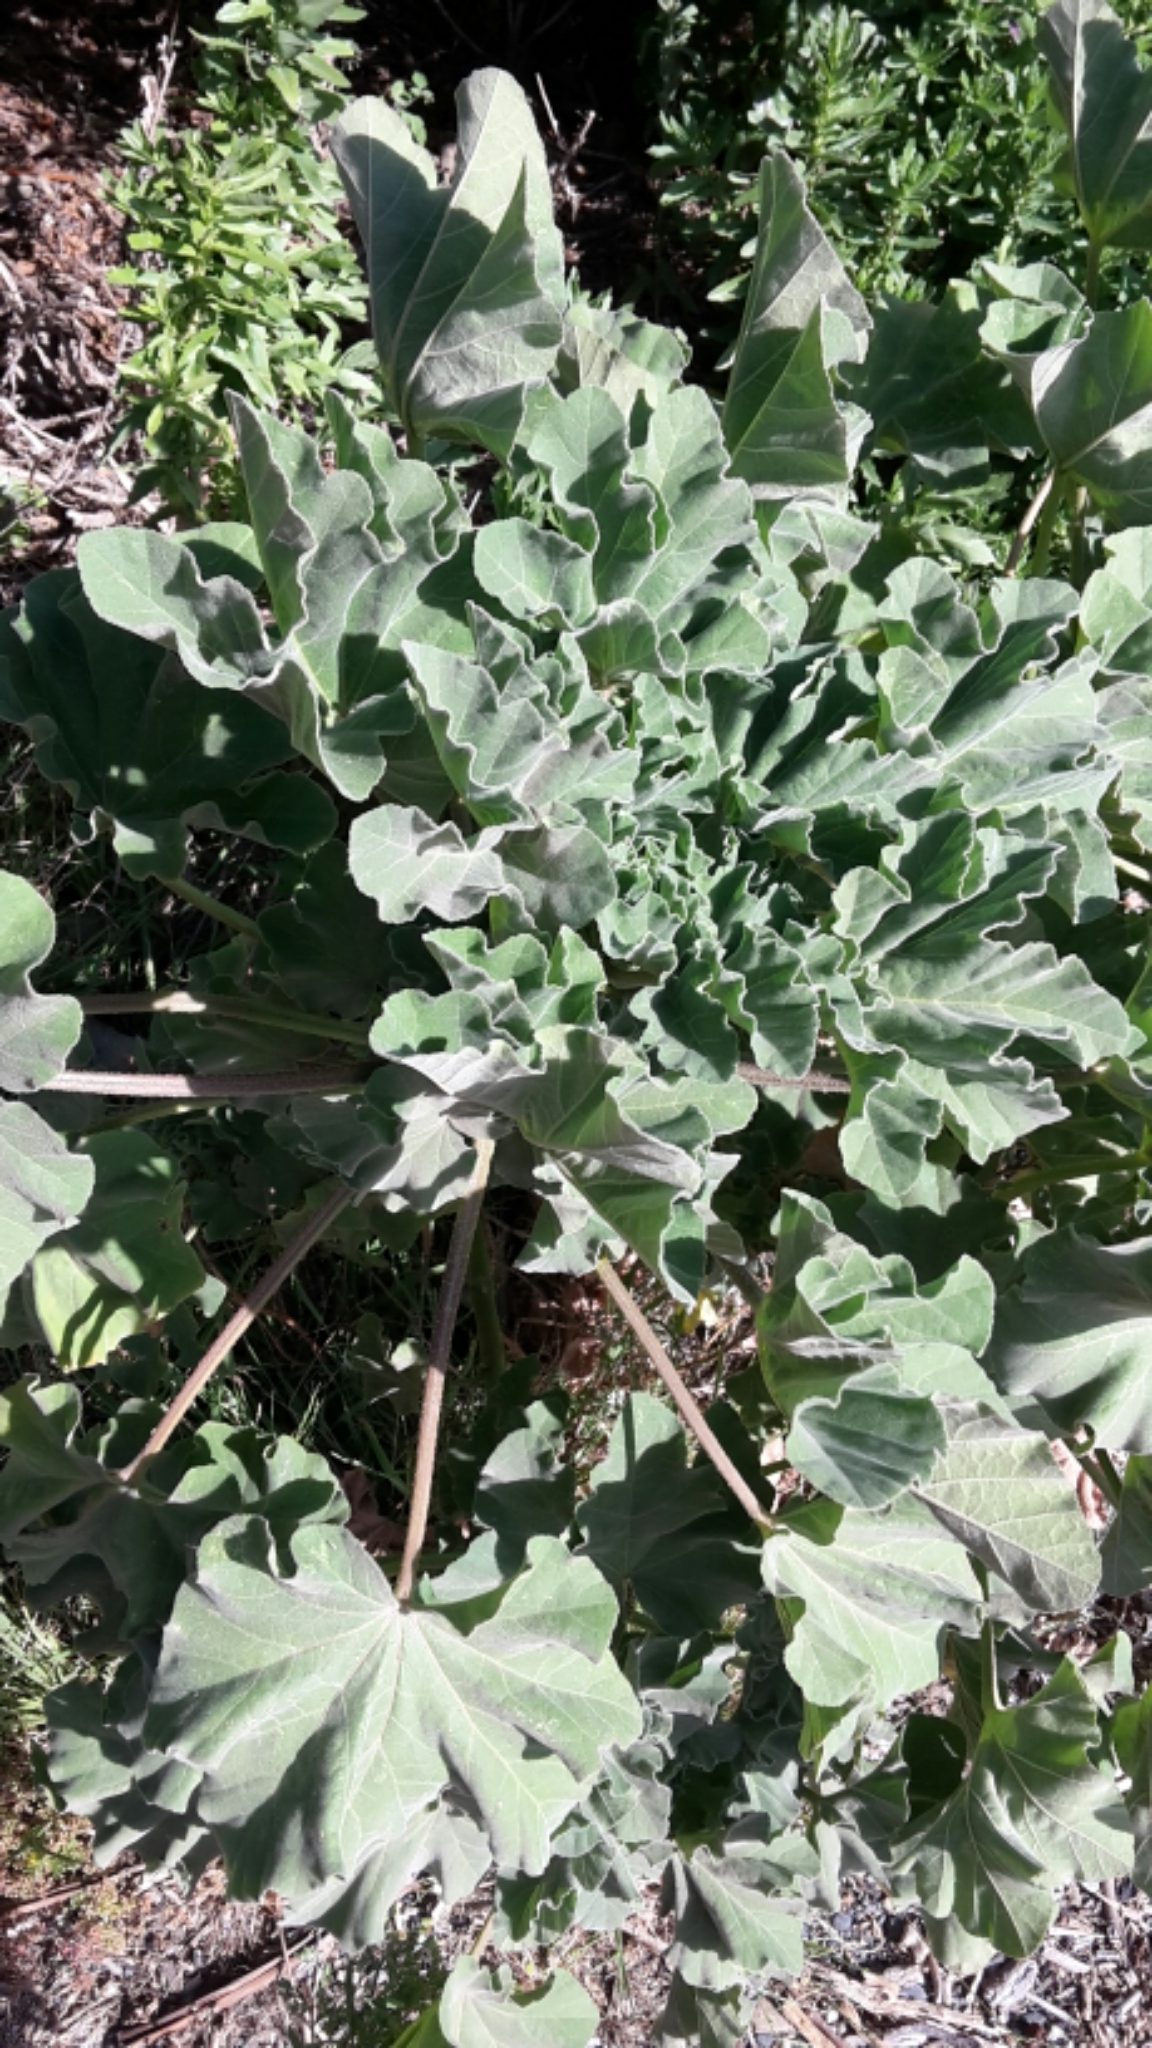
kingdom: Plantae
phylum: Tracheophyta
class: Magnoliopsida
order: Malvales
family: Malvaceae
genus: Malva
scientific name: Malva arborea
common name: Tree mallow
